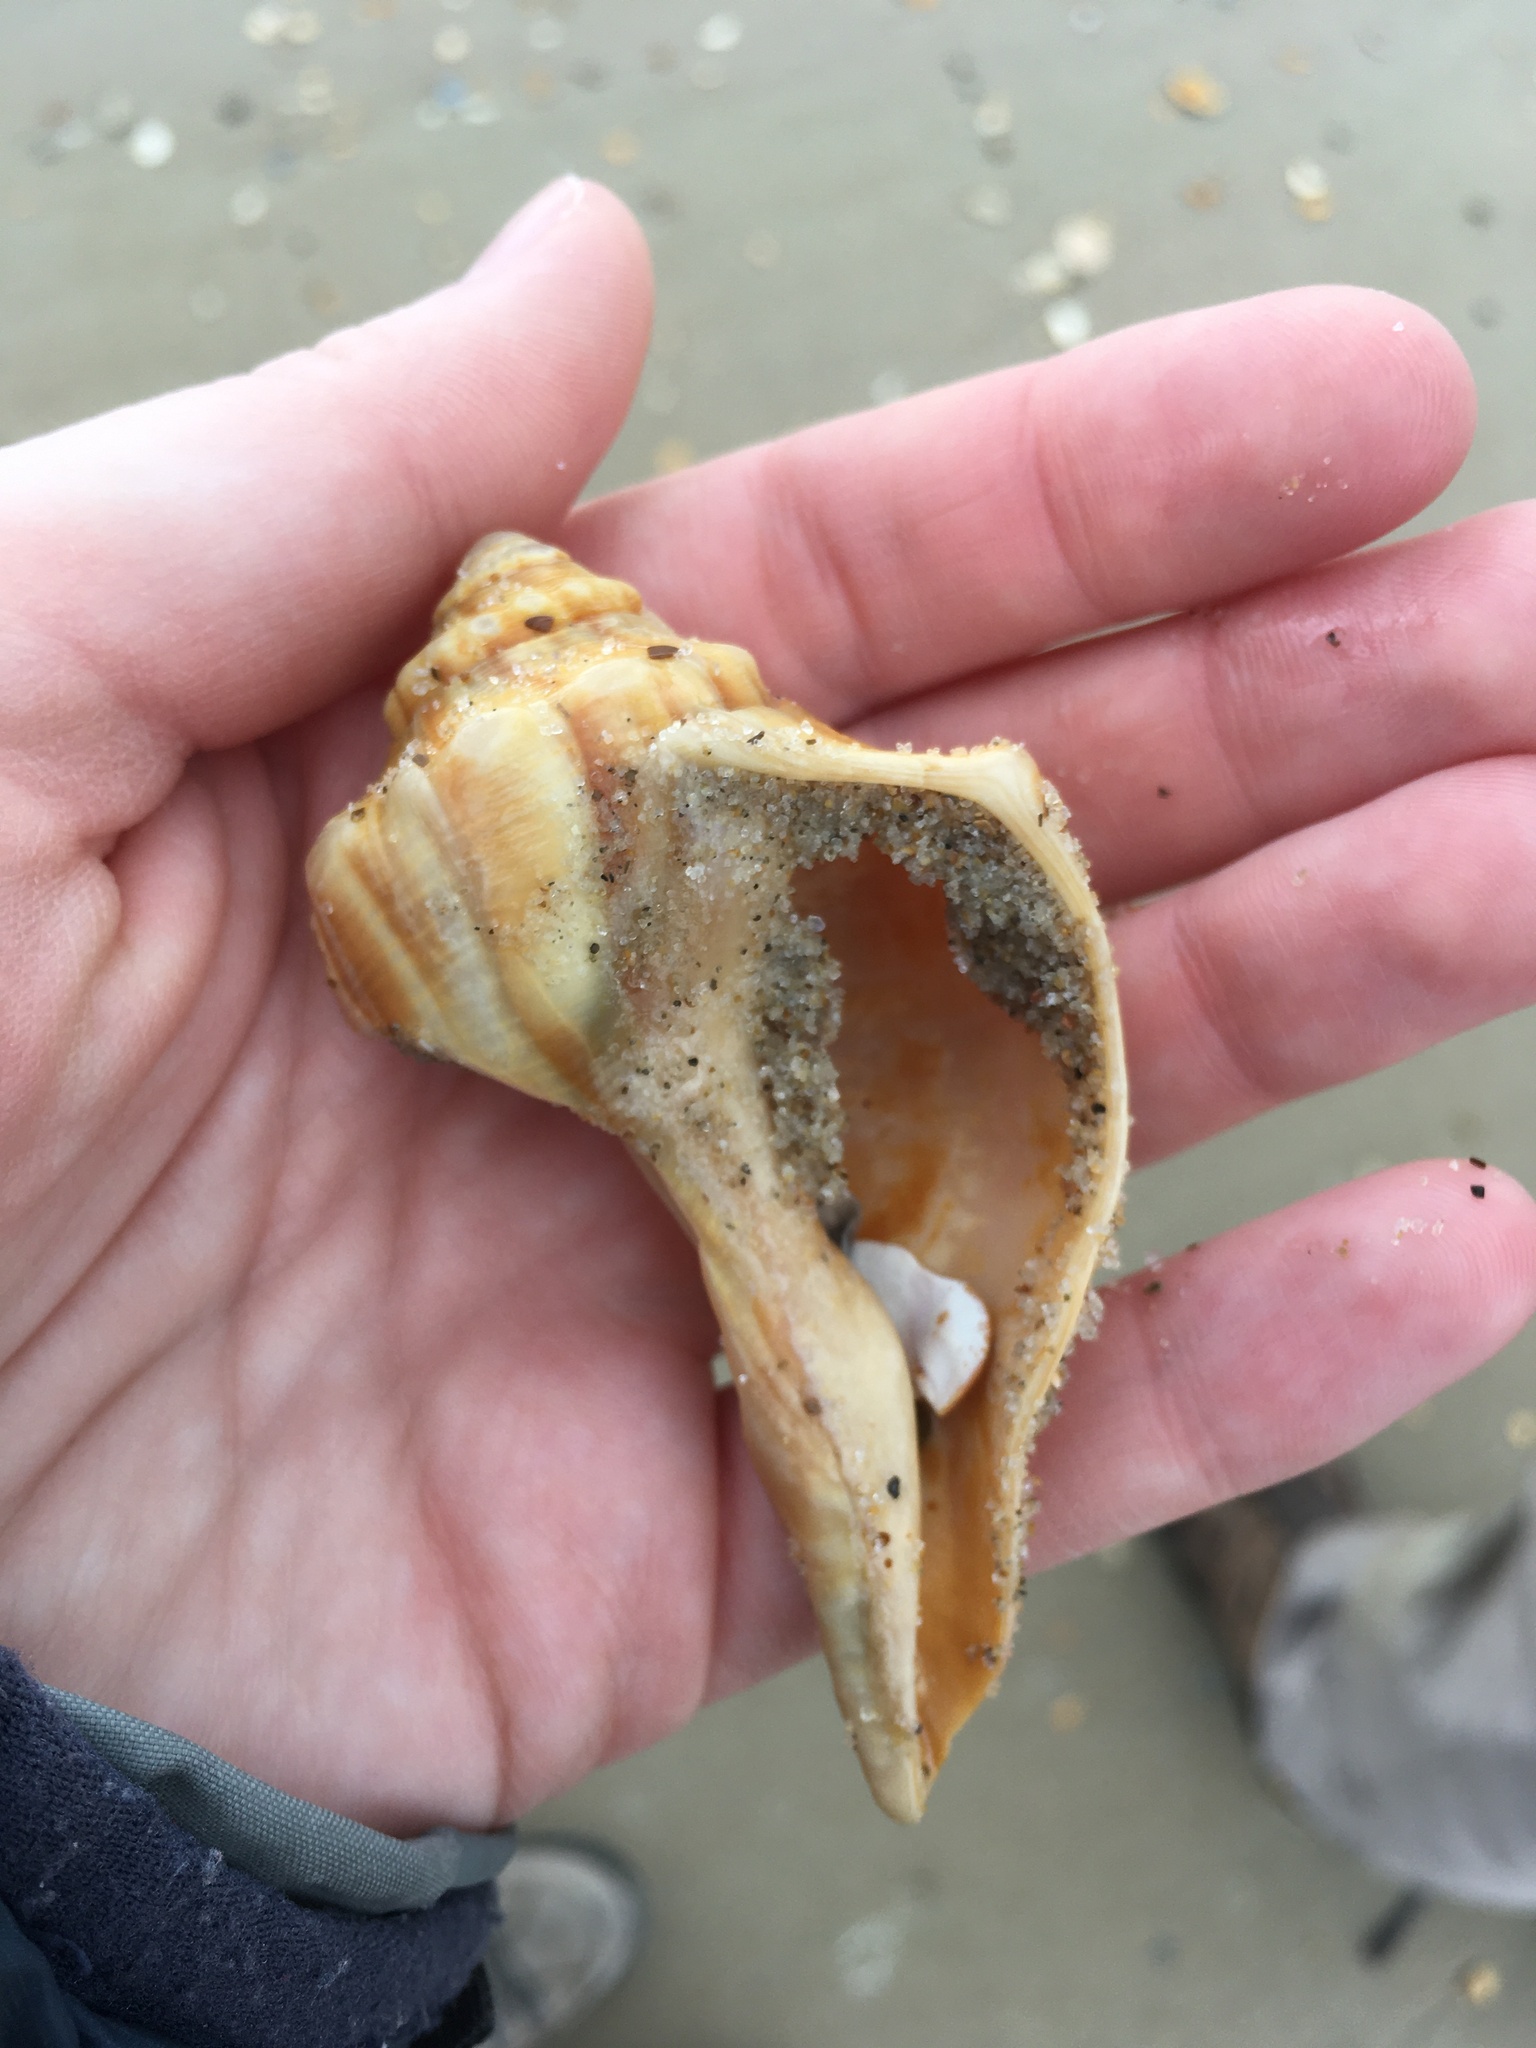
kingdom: Animalia
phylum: Mollusca
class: Gastropoda
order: Neogastropoda
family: Busyconidae
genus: Busycon
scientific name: Busycon carica
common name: Knobbed whelk
